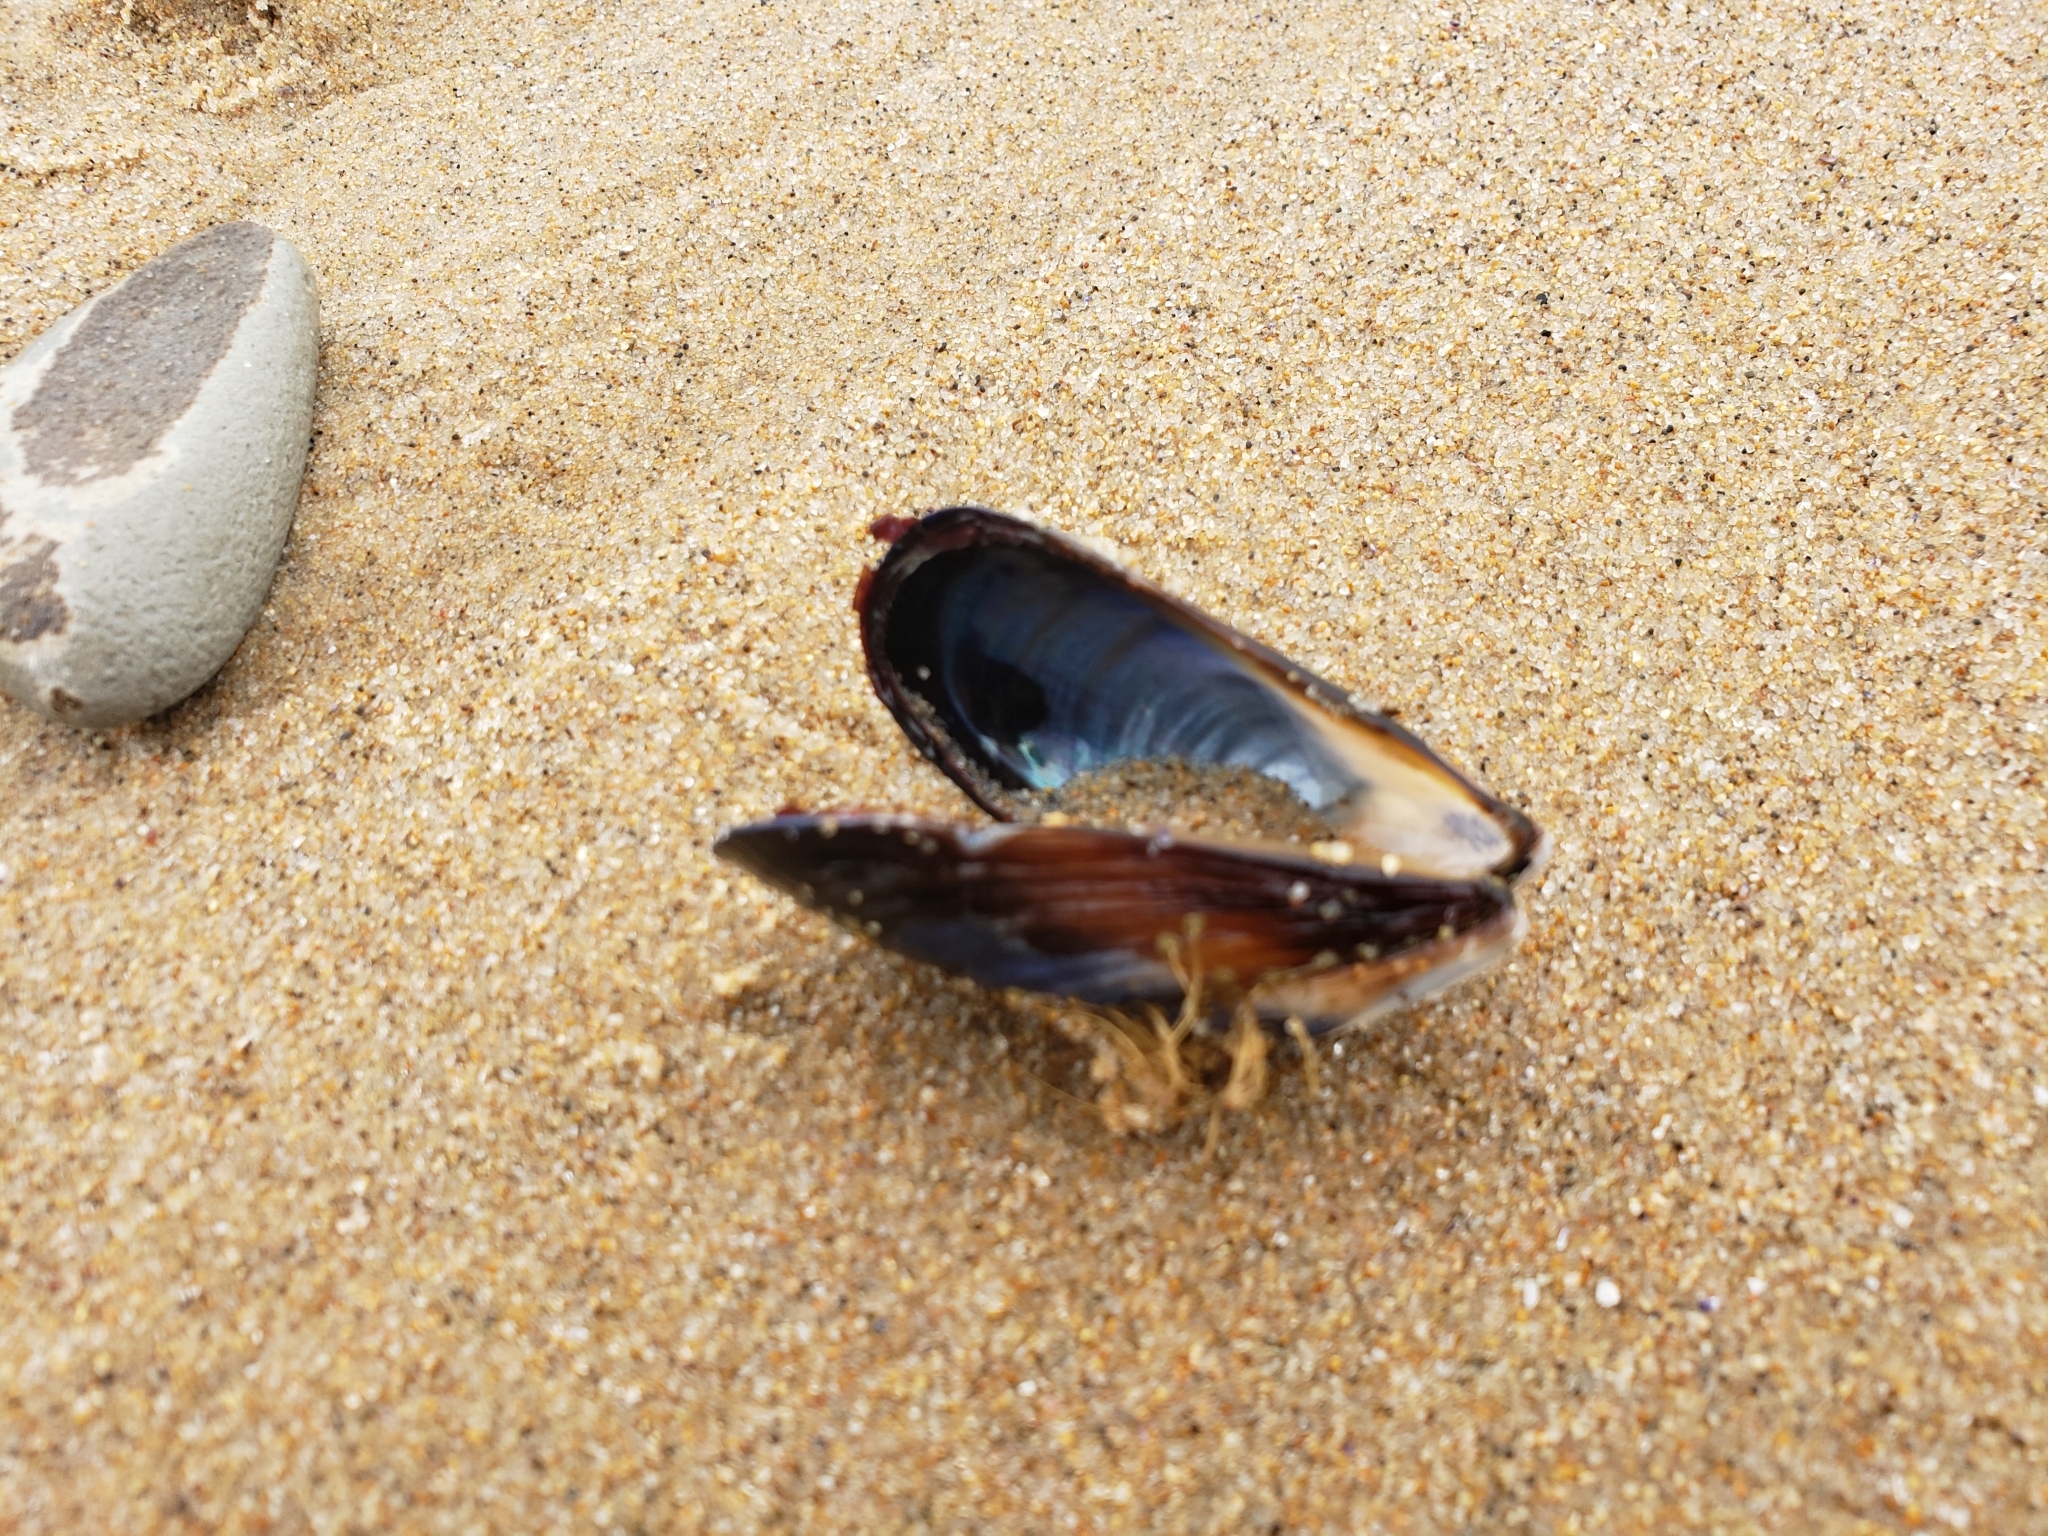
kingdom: Animalia
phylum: Mollusca
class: Bivalvia
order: Mytilida
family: Mytilidae
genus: Mytilus
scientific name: Mytilus californianus
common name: California mussel
